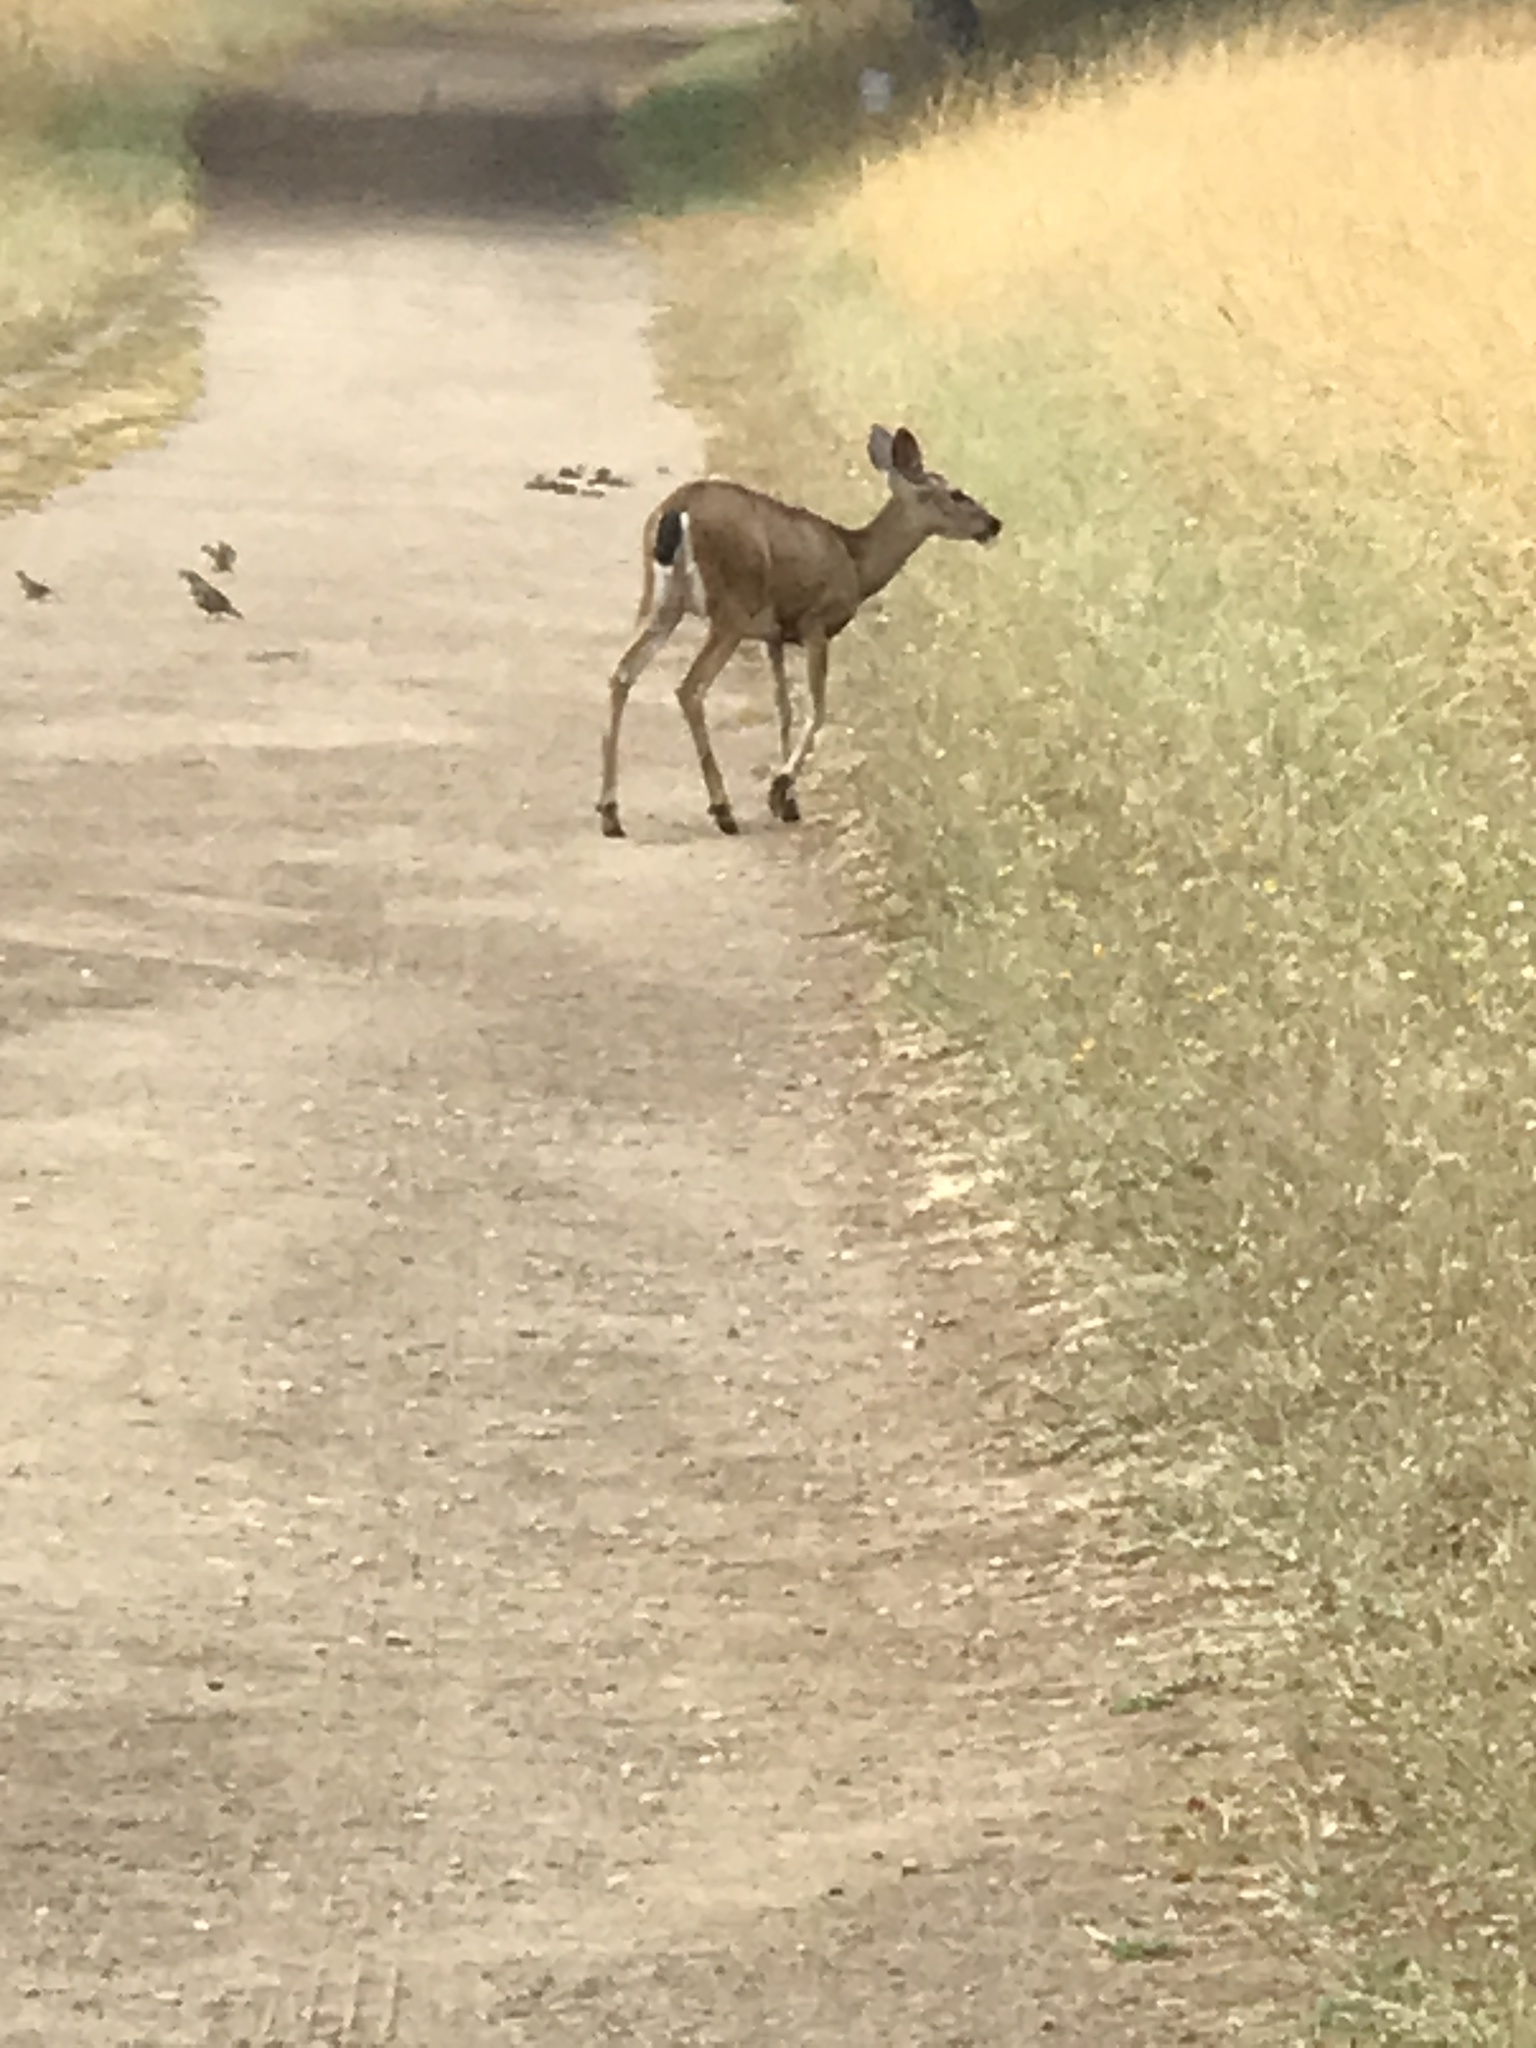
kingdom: Animalia
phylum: Chordata
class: Mammalia
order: Artiodactyla
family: Cervidae
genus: Odocoileus
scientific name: Odocoileus hemionus
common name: Mule deer
